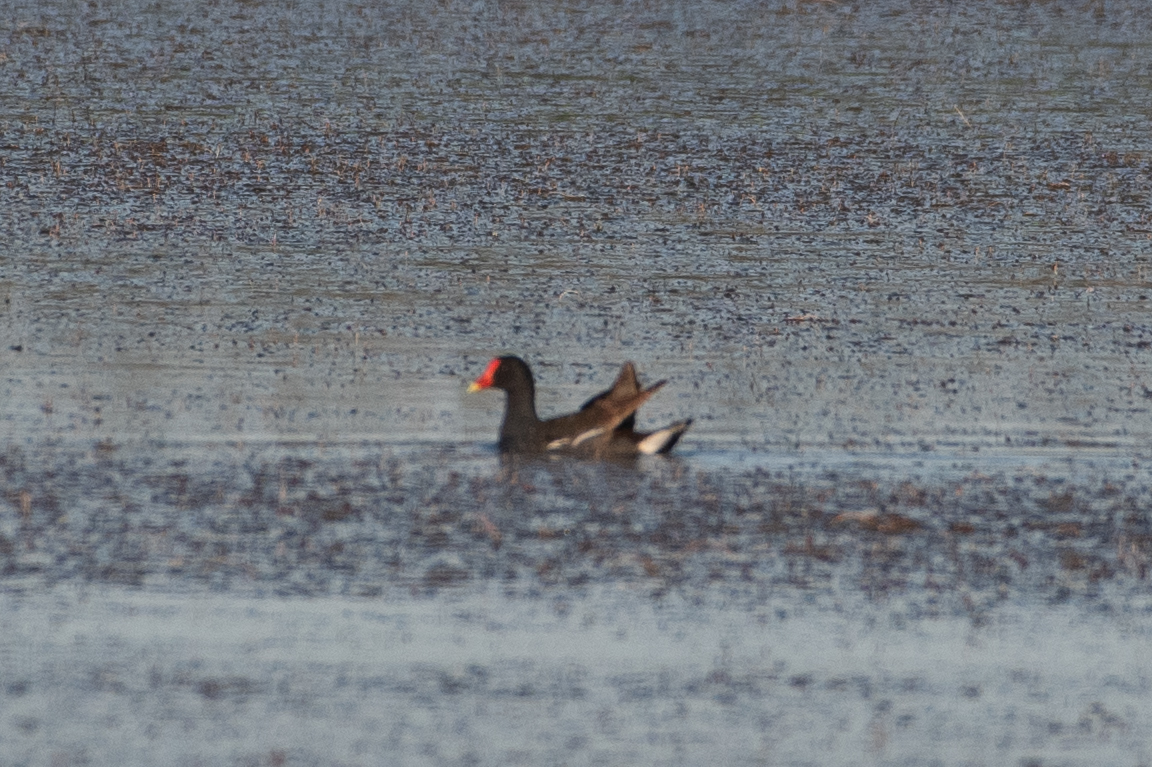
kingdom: Animalia
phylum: Chordata
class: Aves
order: Gruiformes
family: Rallidae
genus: Gallinula
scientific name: Gallinula chloropus
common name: Common moorhen
